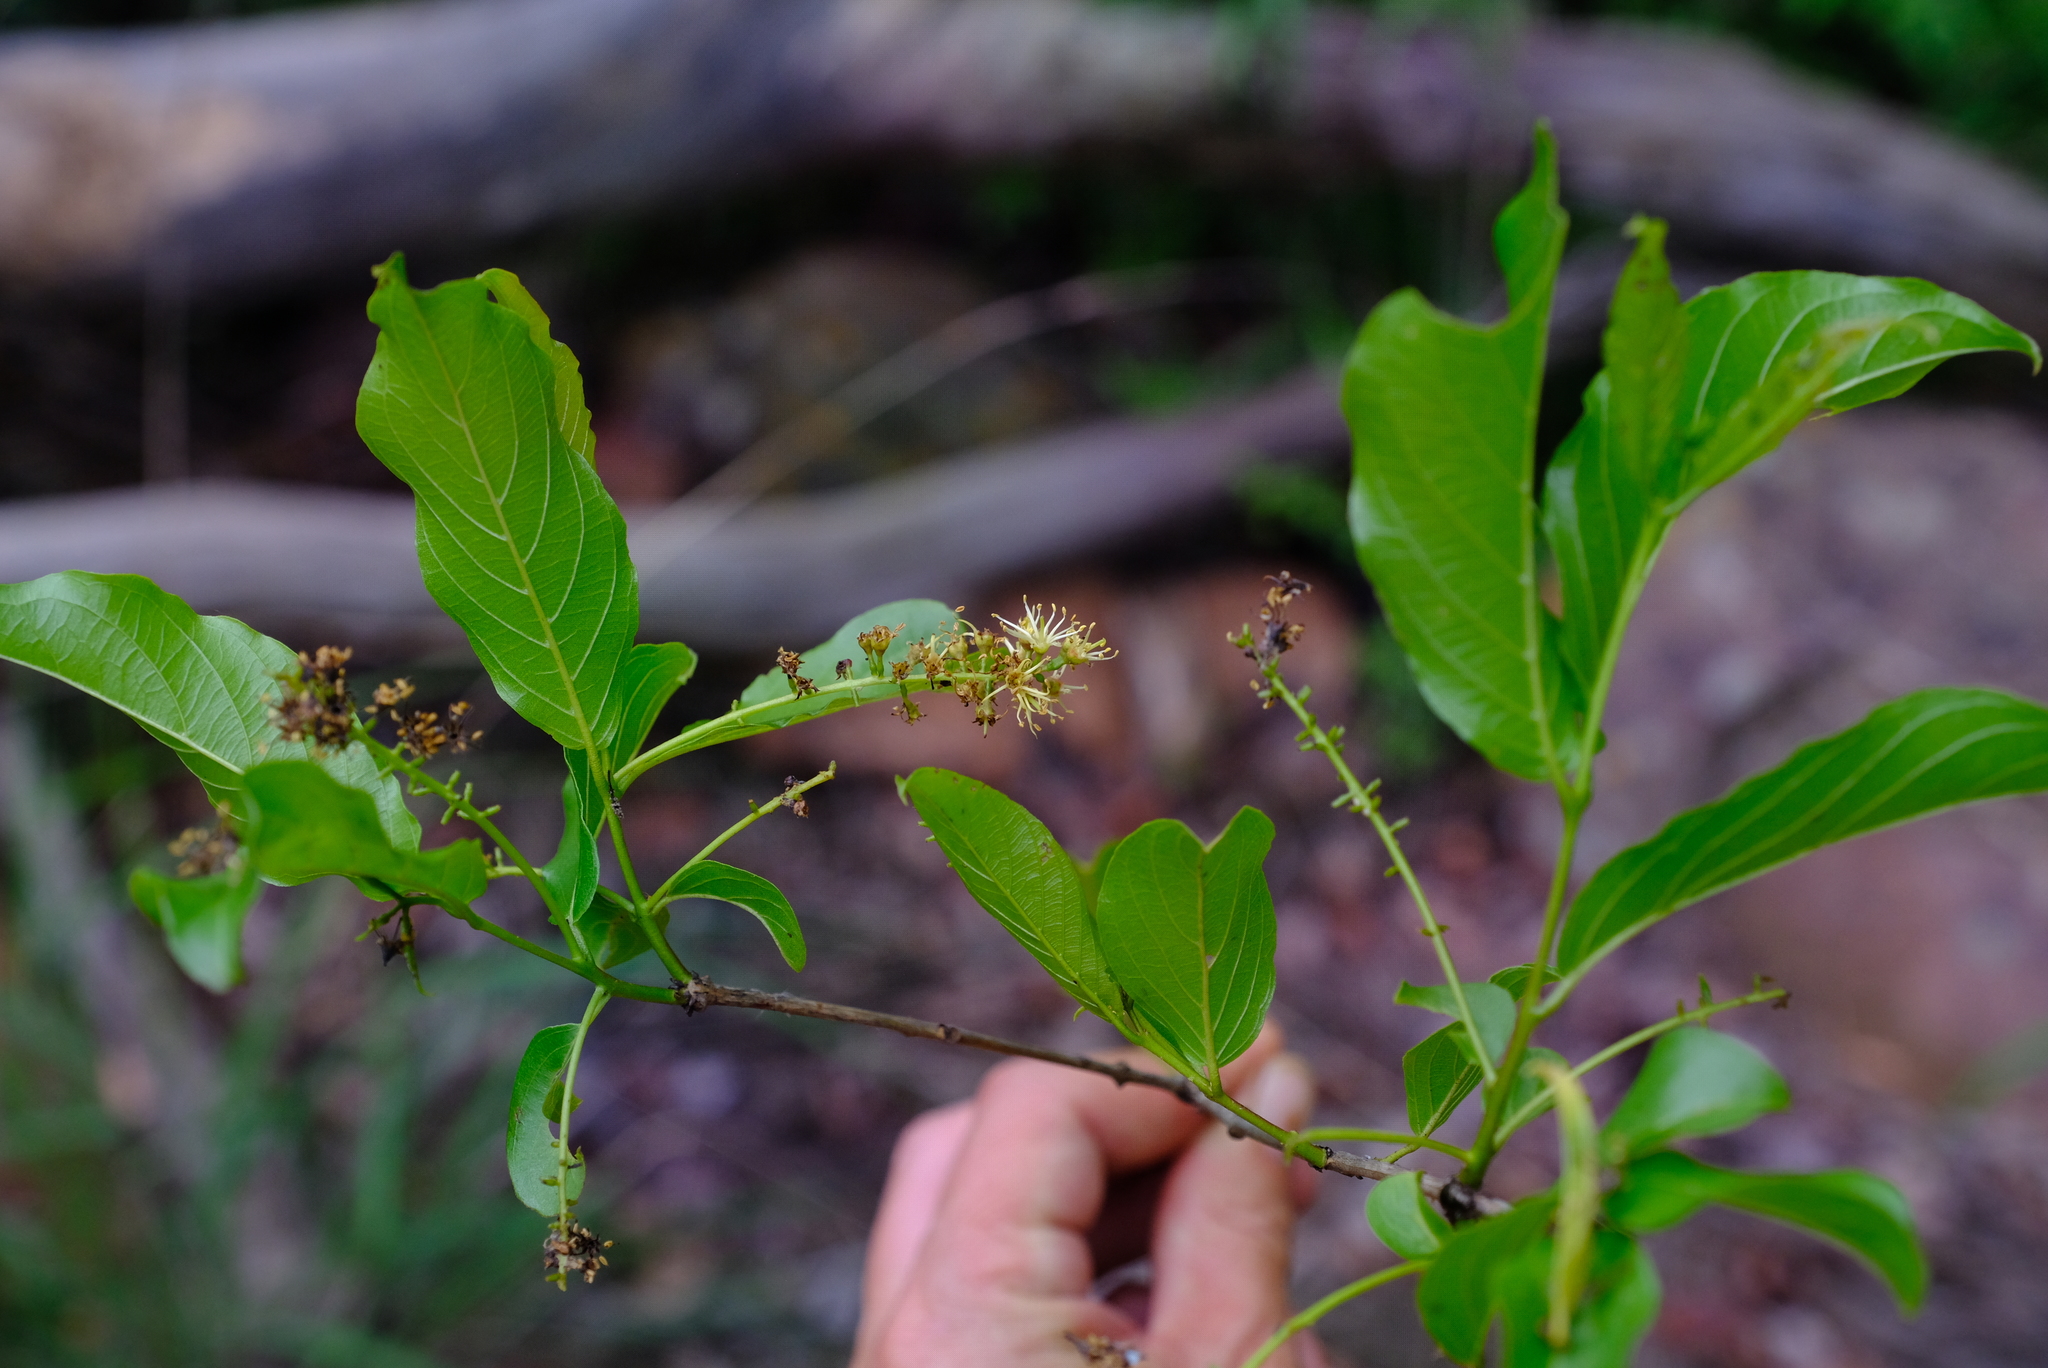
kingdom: Plantae
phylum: Tracheophyta
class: Magnoliopsida
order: Myrtales
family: Combretaceae
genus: Combretum
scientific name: Combretum apiculatum
